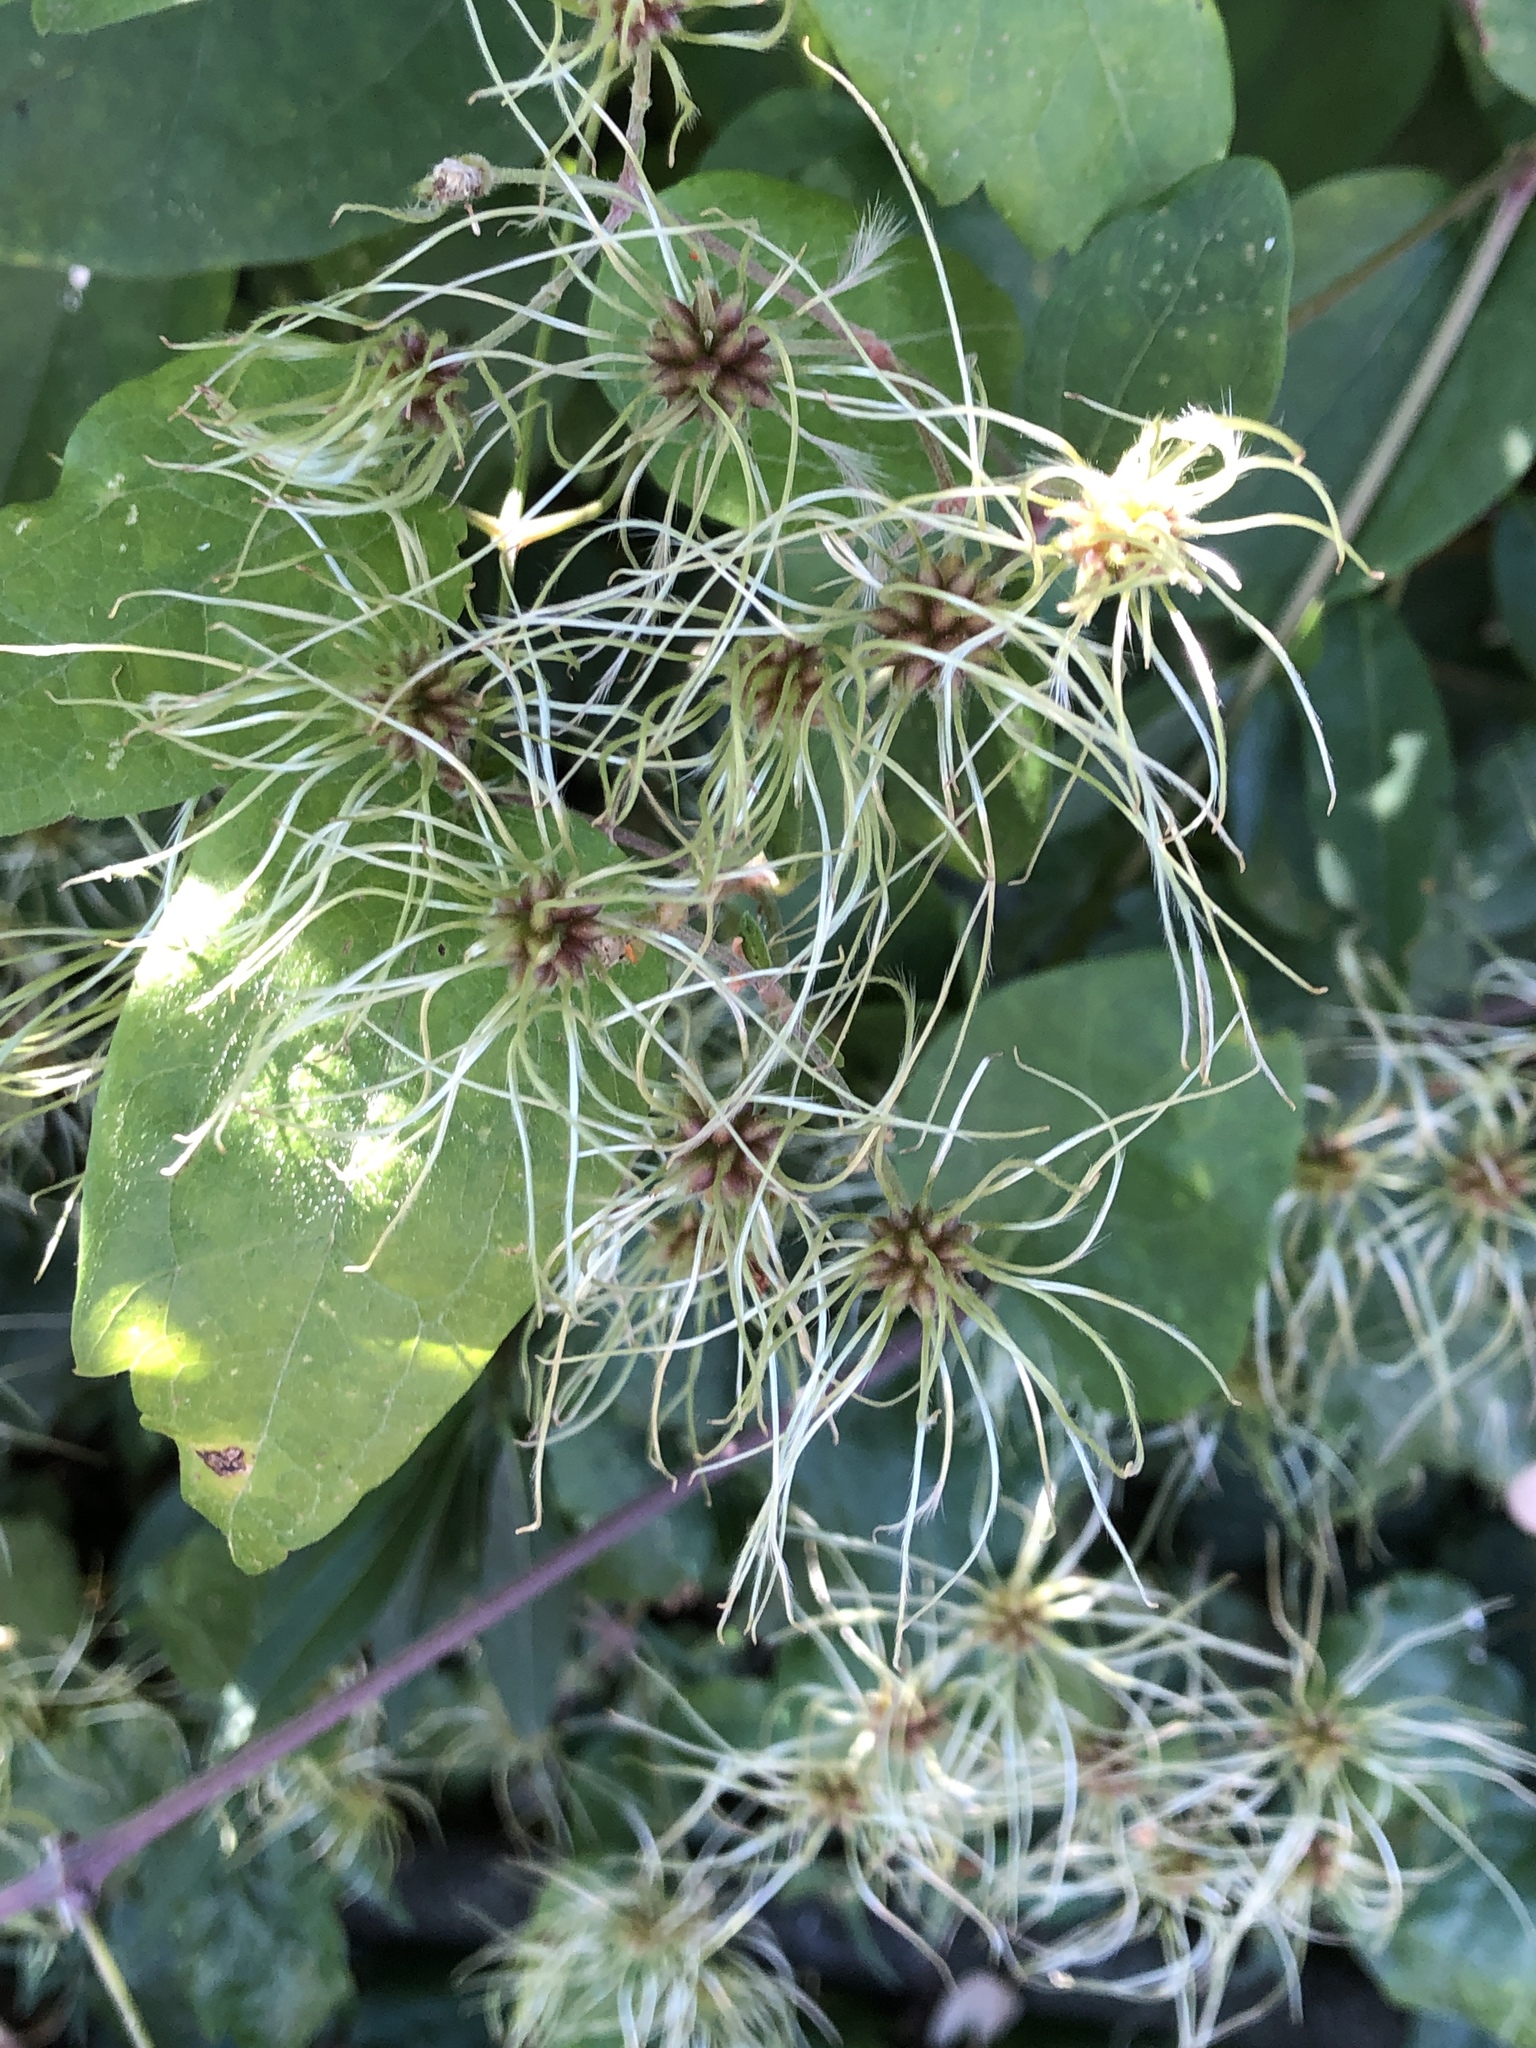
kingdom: Plantae
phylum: Tracheophyta
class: Magnoliopsida
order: Ranunculales
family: Ranunculaceae
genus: Clematis
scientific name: Clematis vitalba
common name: Evergreen clematis
